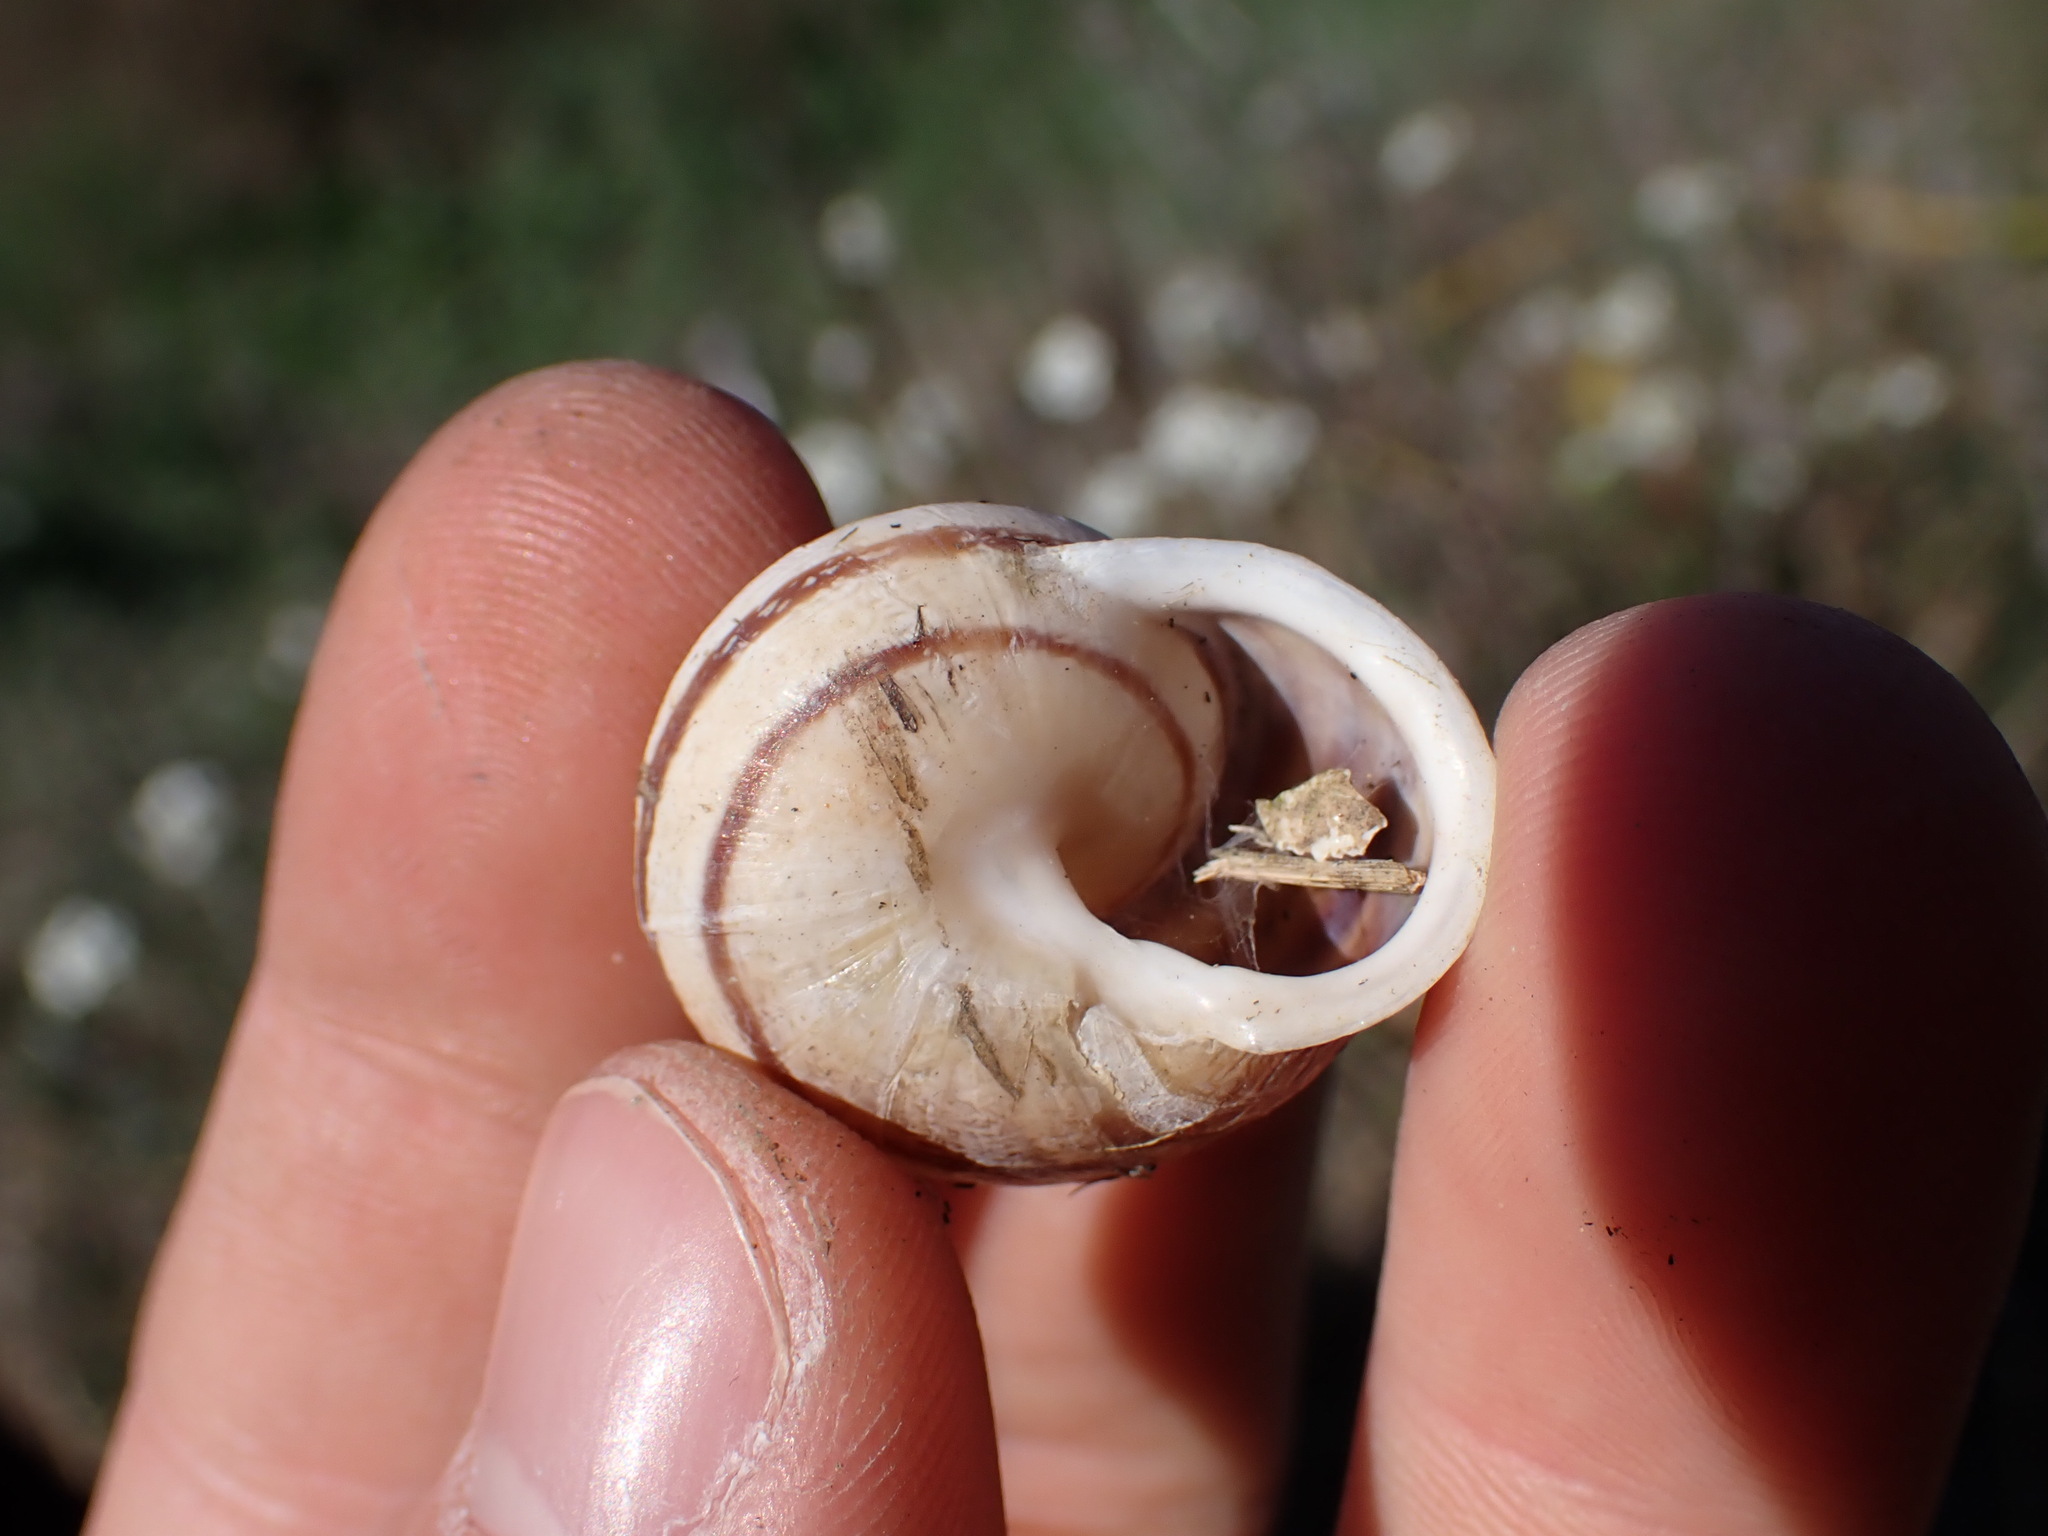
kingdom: Animalia
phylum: Mollusca
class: Gastropoda
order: Stylommatophora
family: Helicidae
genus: Eobania
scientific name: Eobania vermiculata
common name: Chocolateband snail
